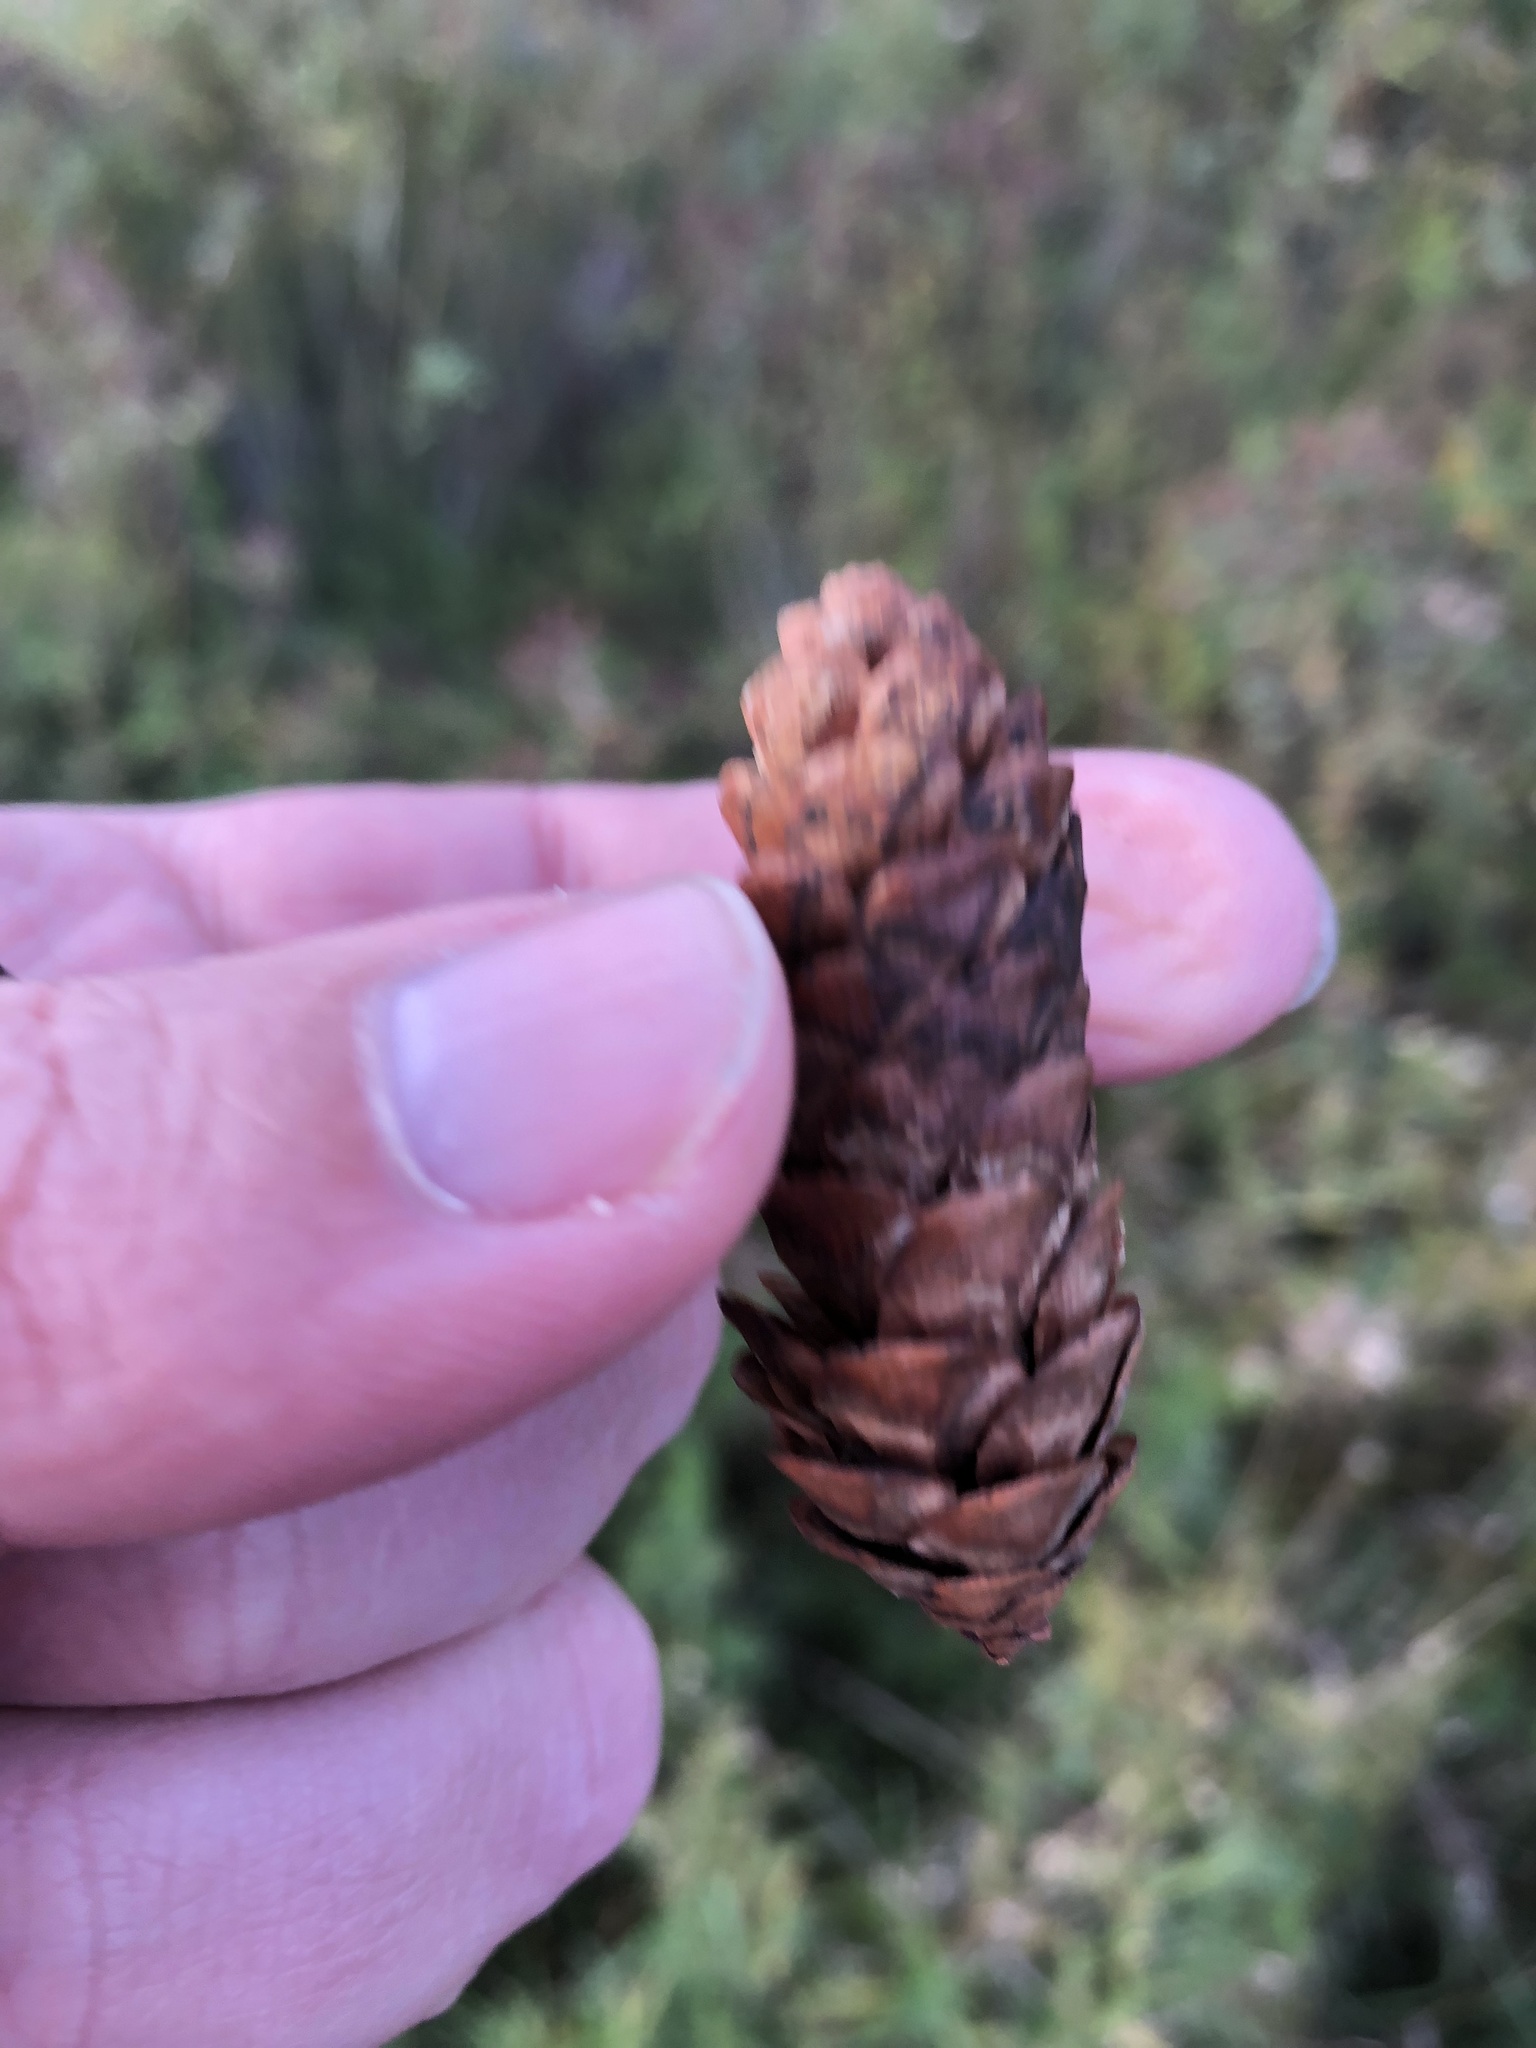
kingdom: Plantae
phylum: Tracheophyta
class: Pinopsida
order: Pinales
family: Pinaceae
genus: Picea
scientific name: Picea glauca
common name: White spruce
